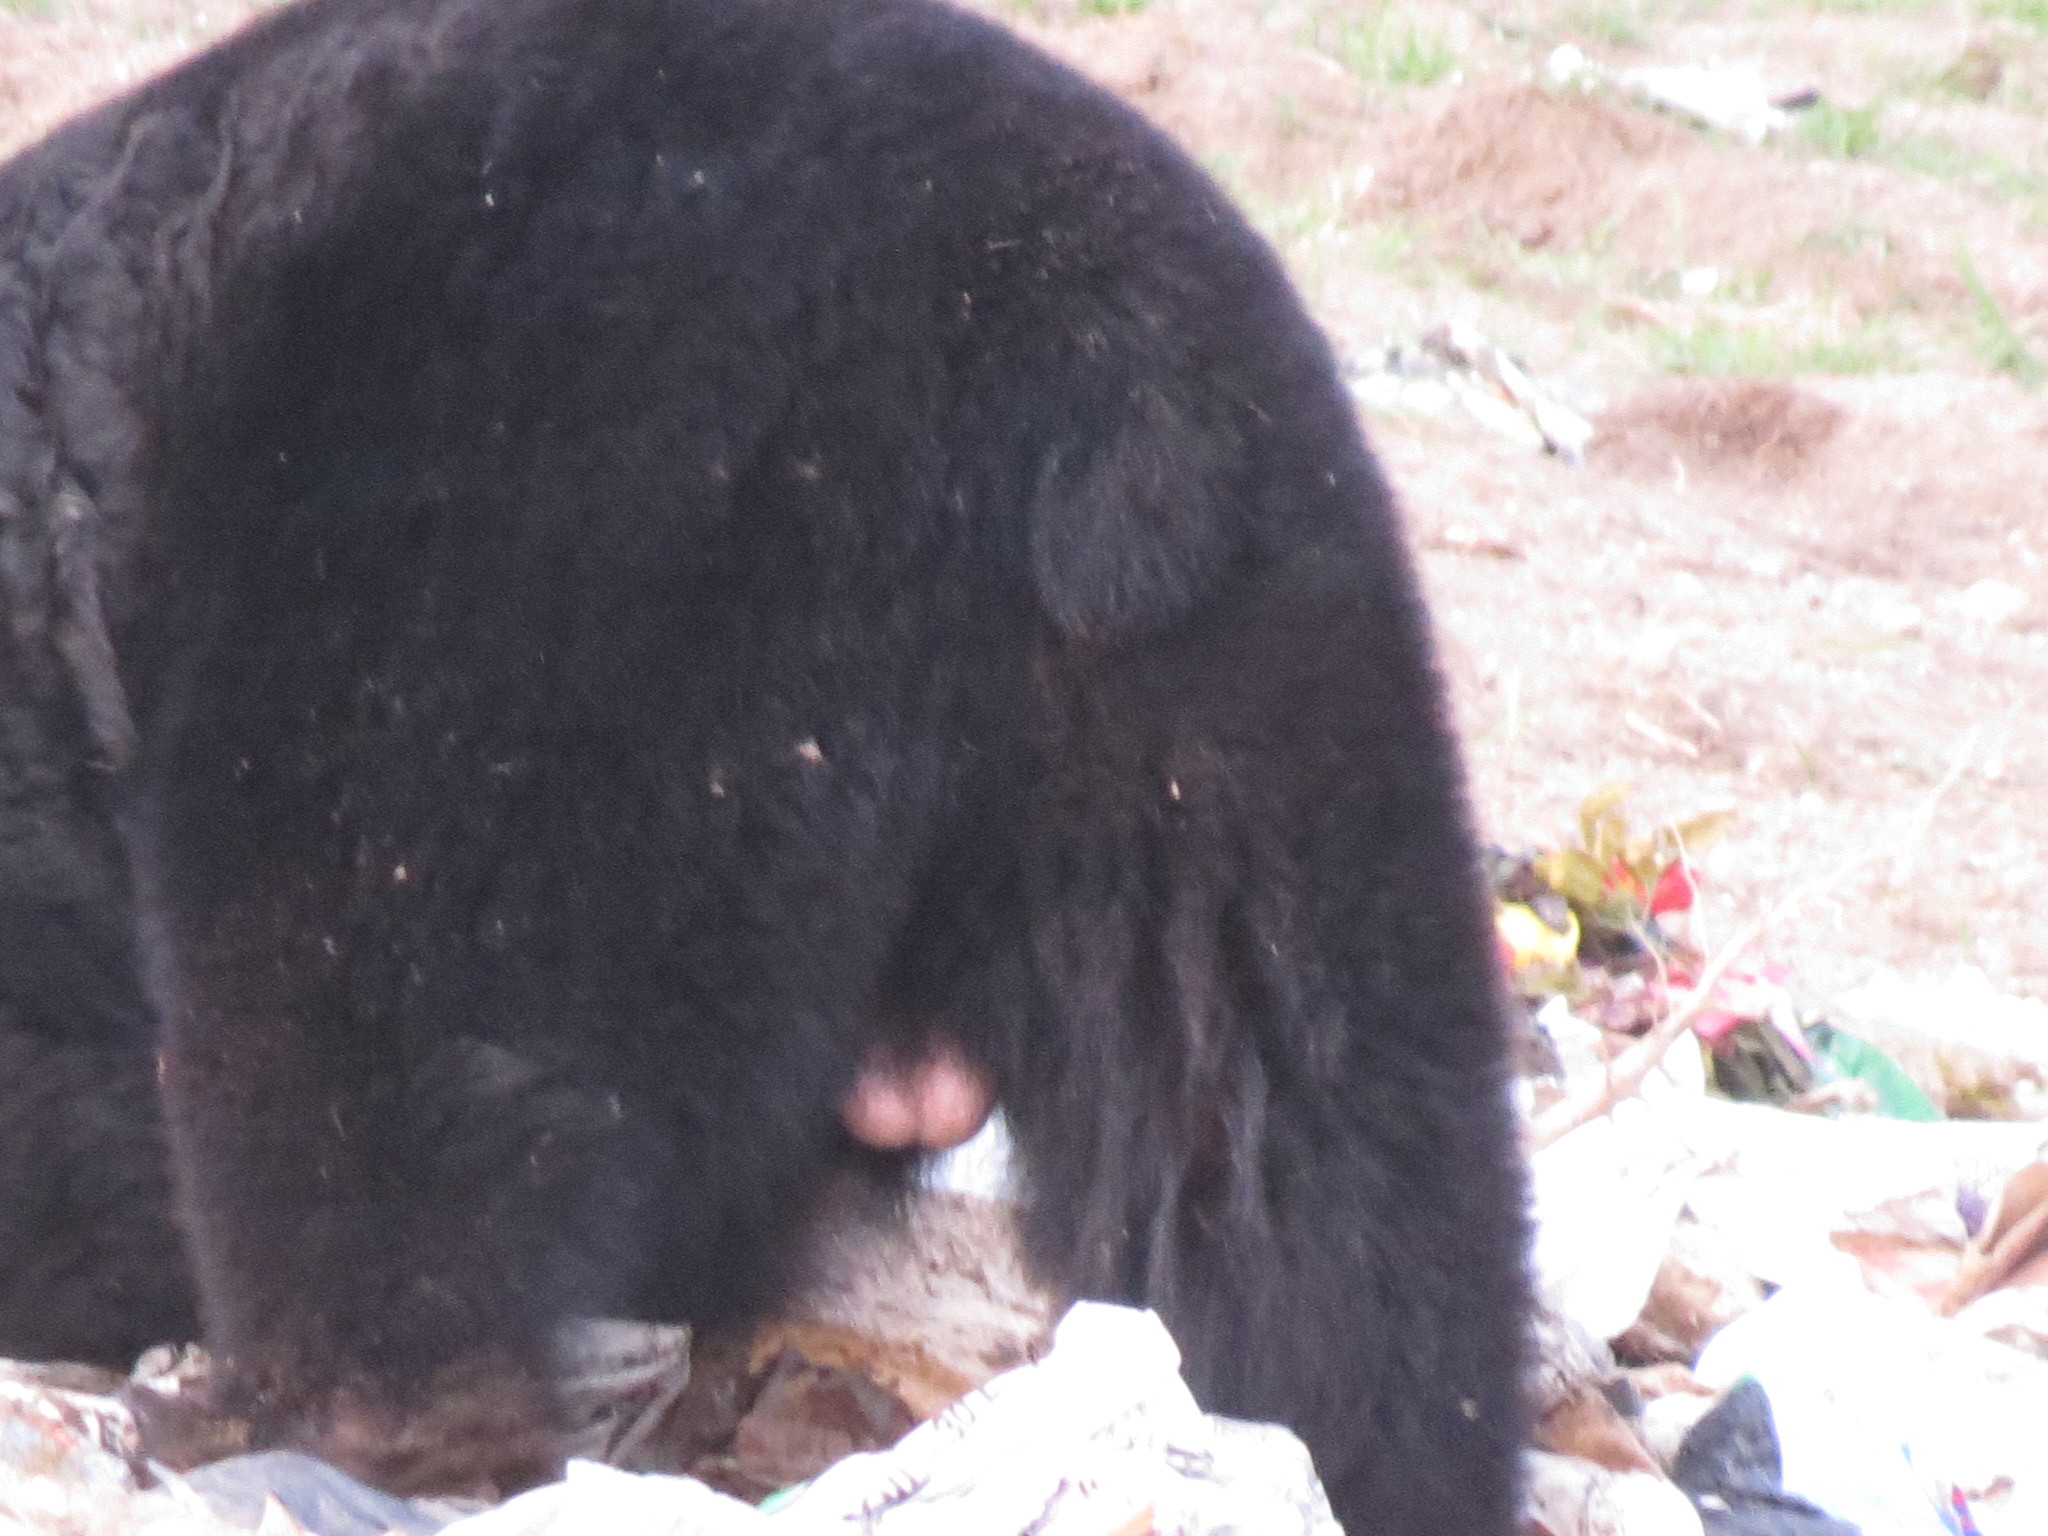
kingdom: Animalia
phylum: Chordata
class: Mammalia
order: Carnivora
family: Ursidae
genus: Ursus
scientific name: Ursus americanus
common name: American black bear
